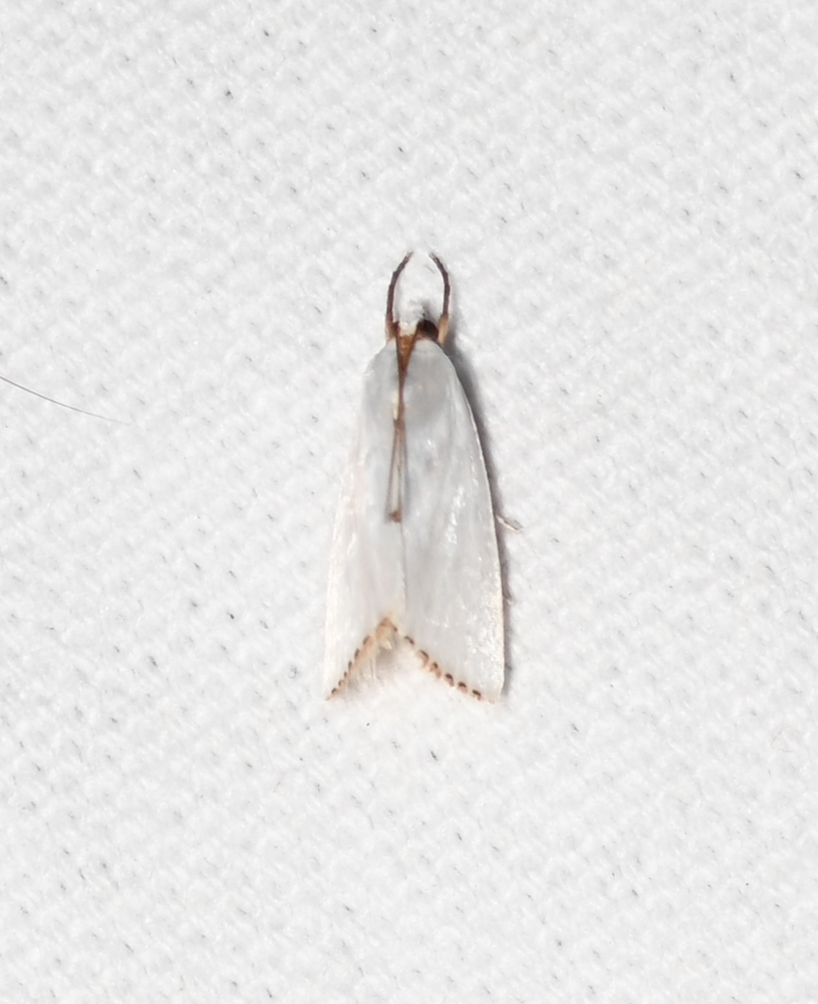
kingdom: Animalia
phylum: Arthropoda
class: Insecta
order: Lepidoptera
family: Crambidae
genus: Argyria
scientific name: Argyria nivalis
